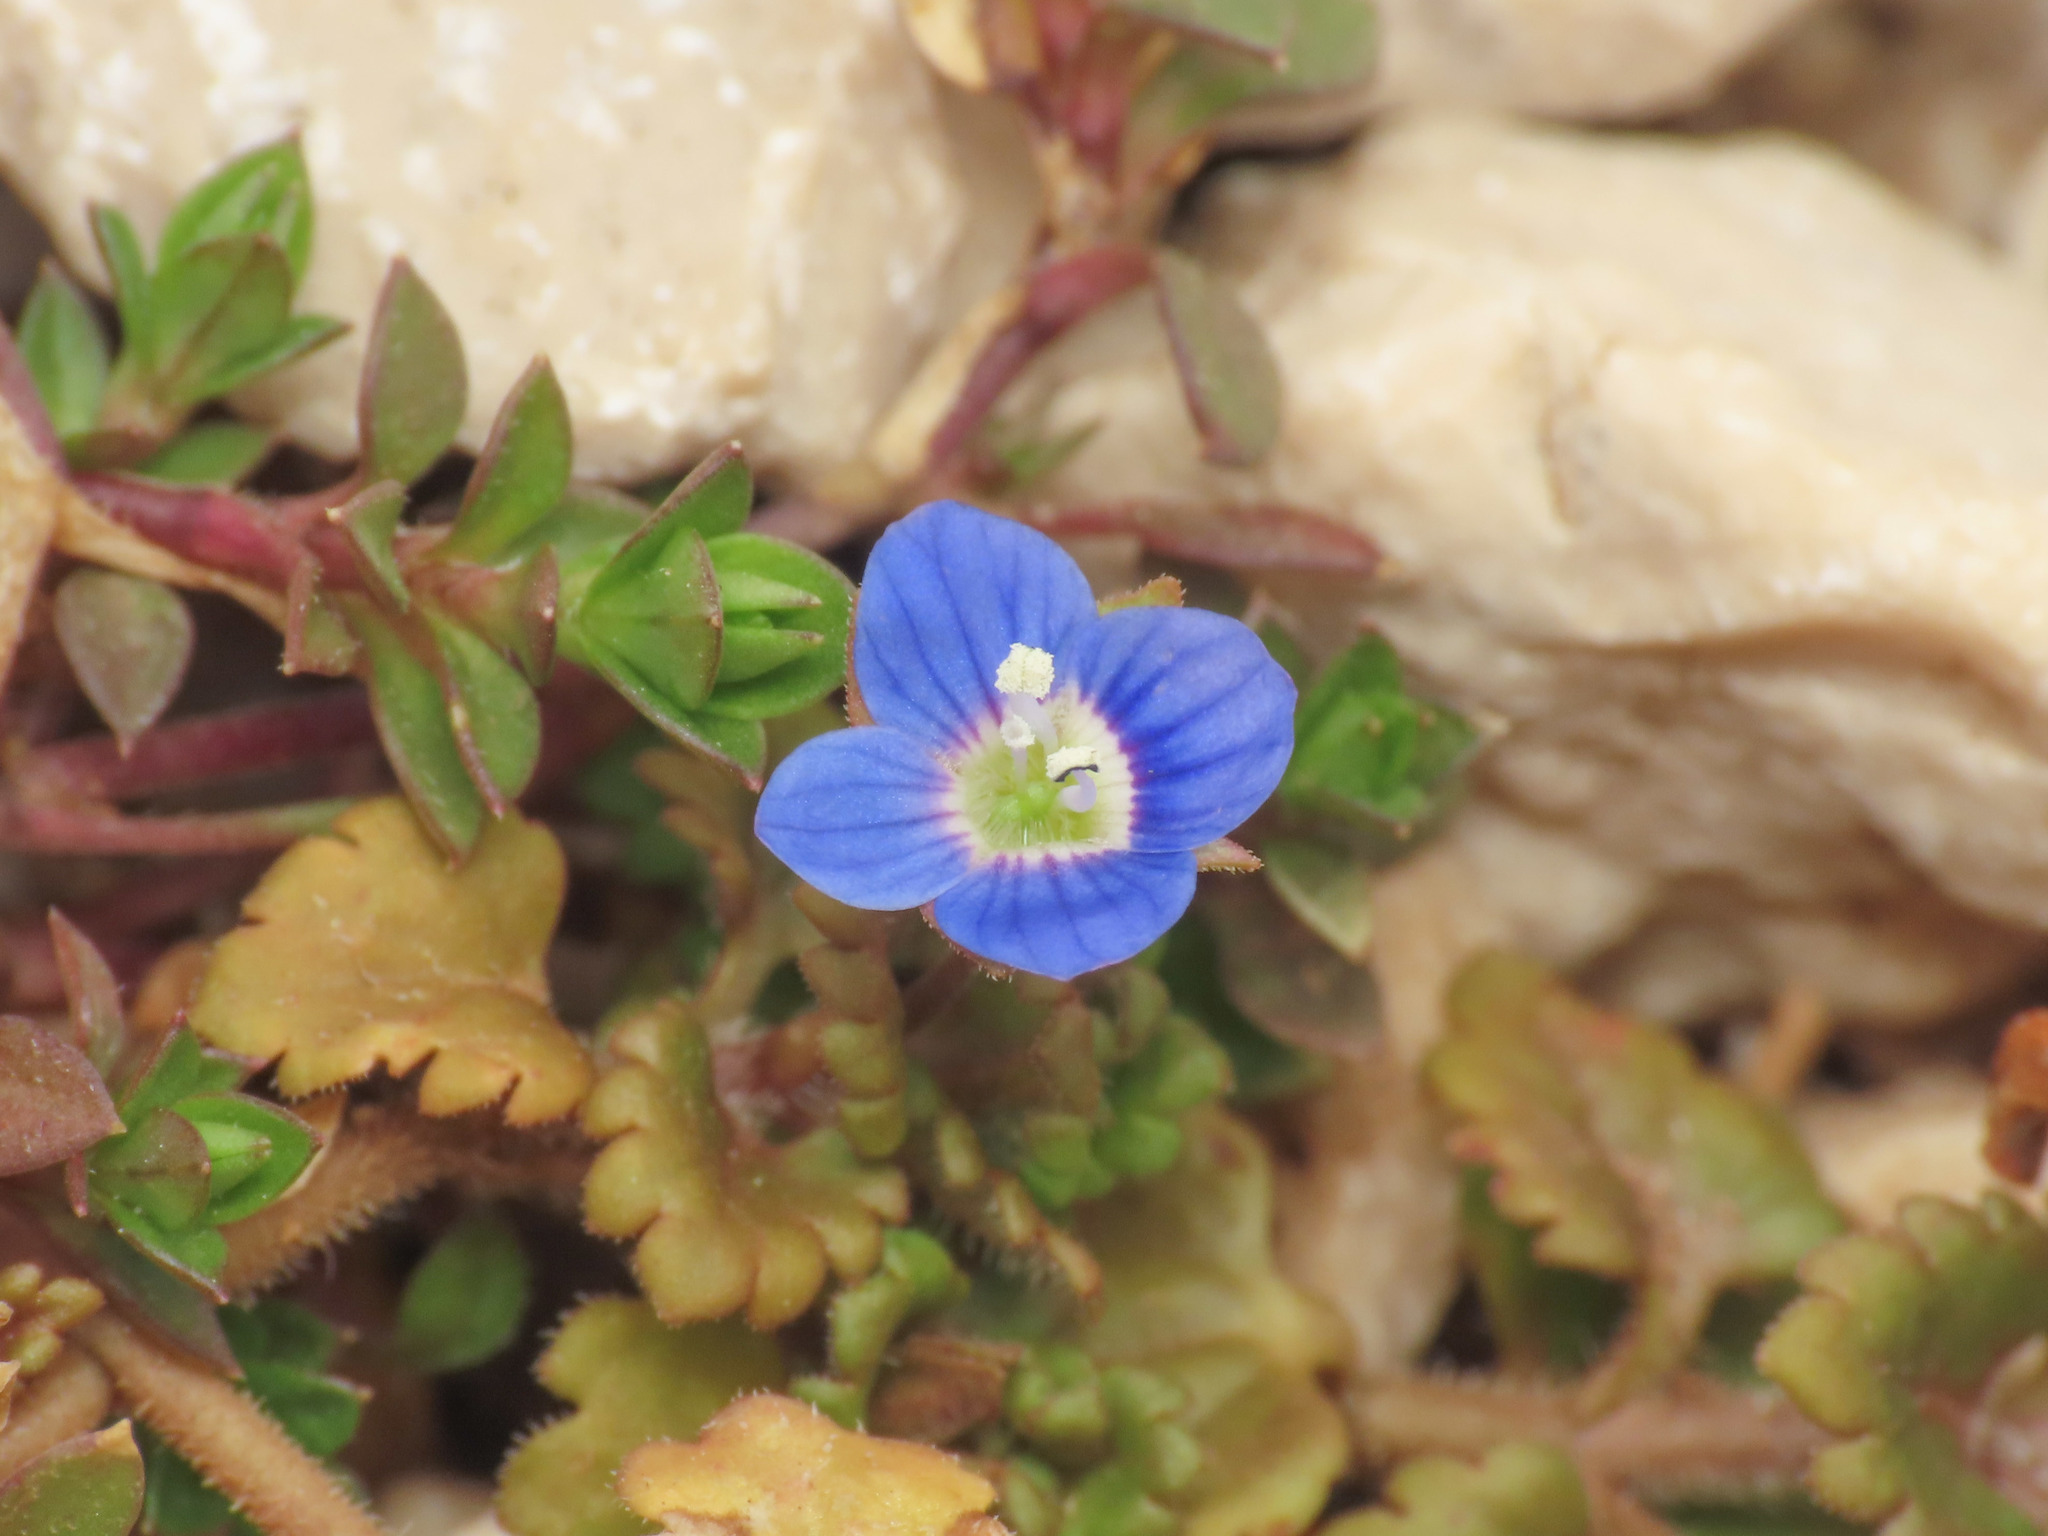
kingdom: Plantae
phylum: Tracheophyta
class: Magnoliopsida
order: Lamiales
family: Plantaginaceae
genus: Veronica
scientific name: Veronica polita
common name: Grey field-speedwell
